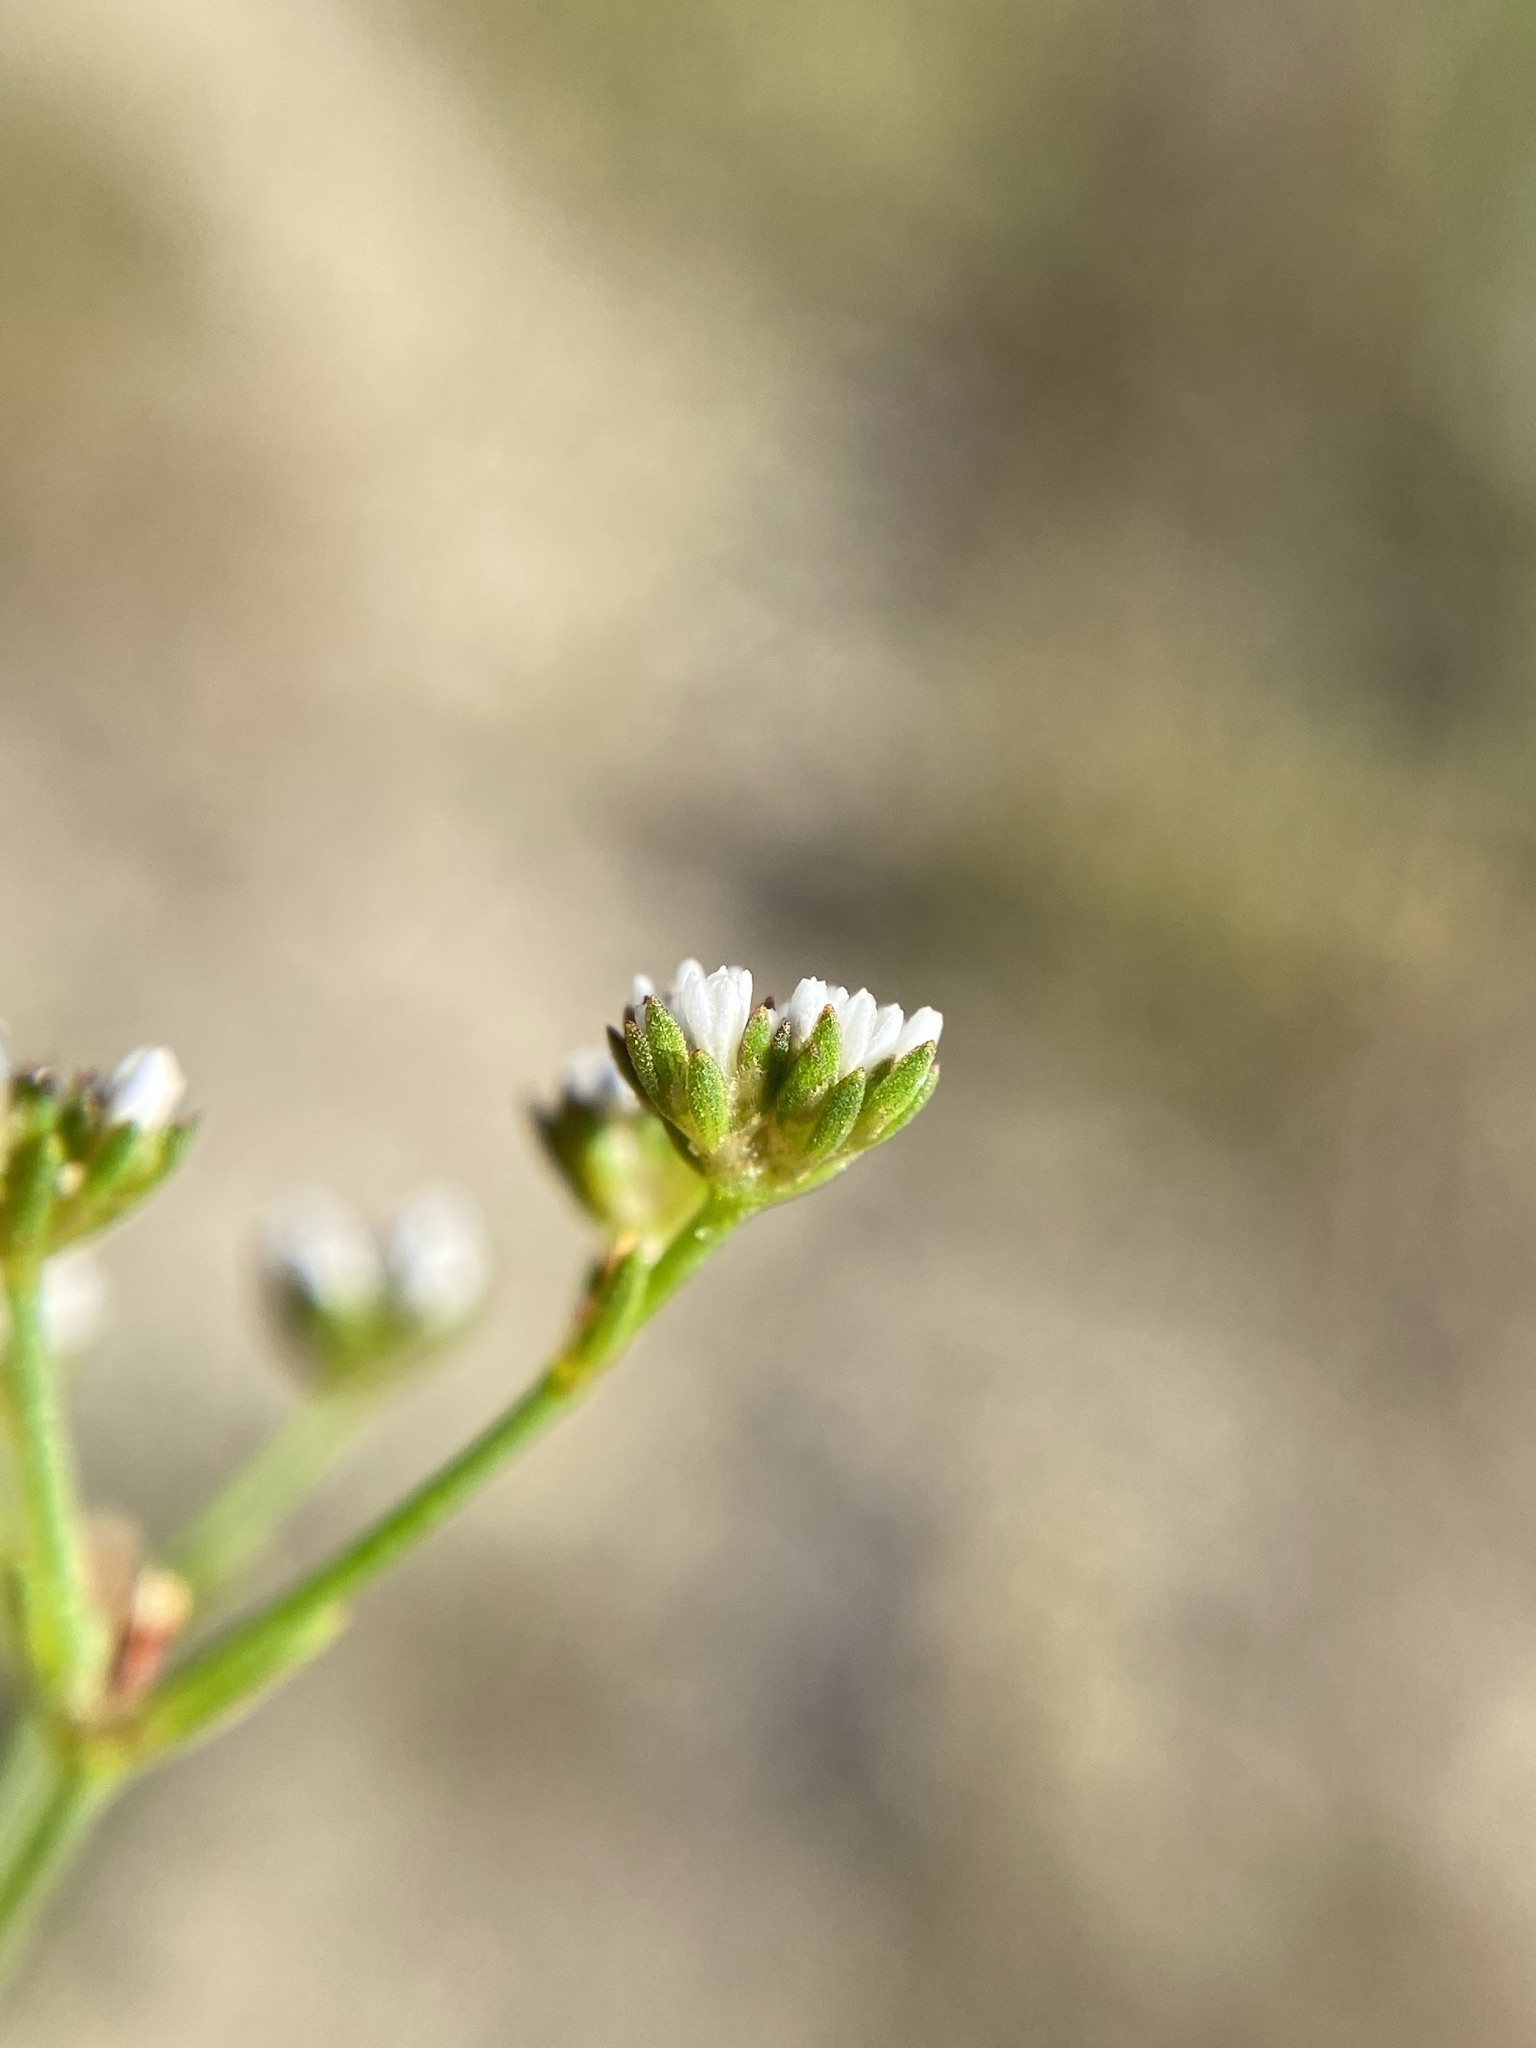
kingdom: Plantae
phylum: Tracheophyta
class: Magnoliopsida
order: Caryophyllales
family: Caryophyllaceae
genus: Paronychia
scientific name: Paronychia patula
